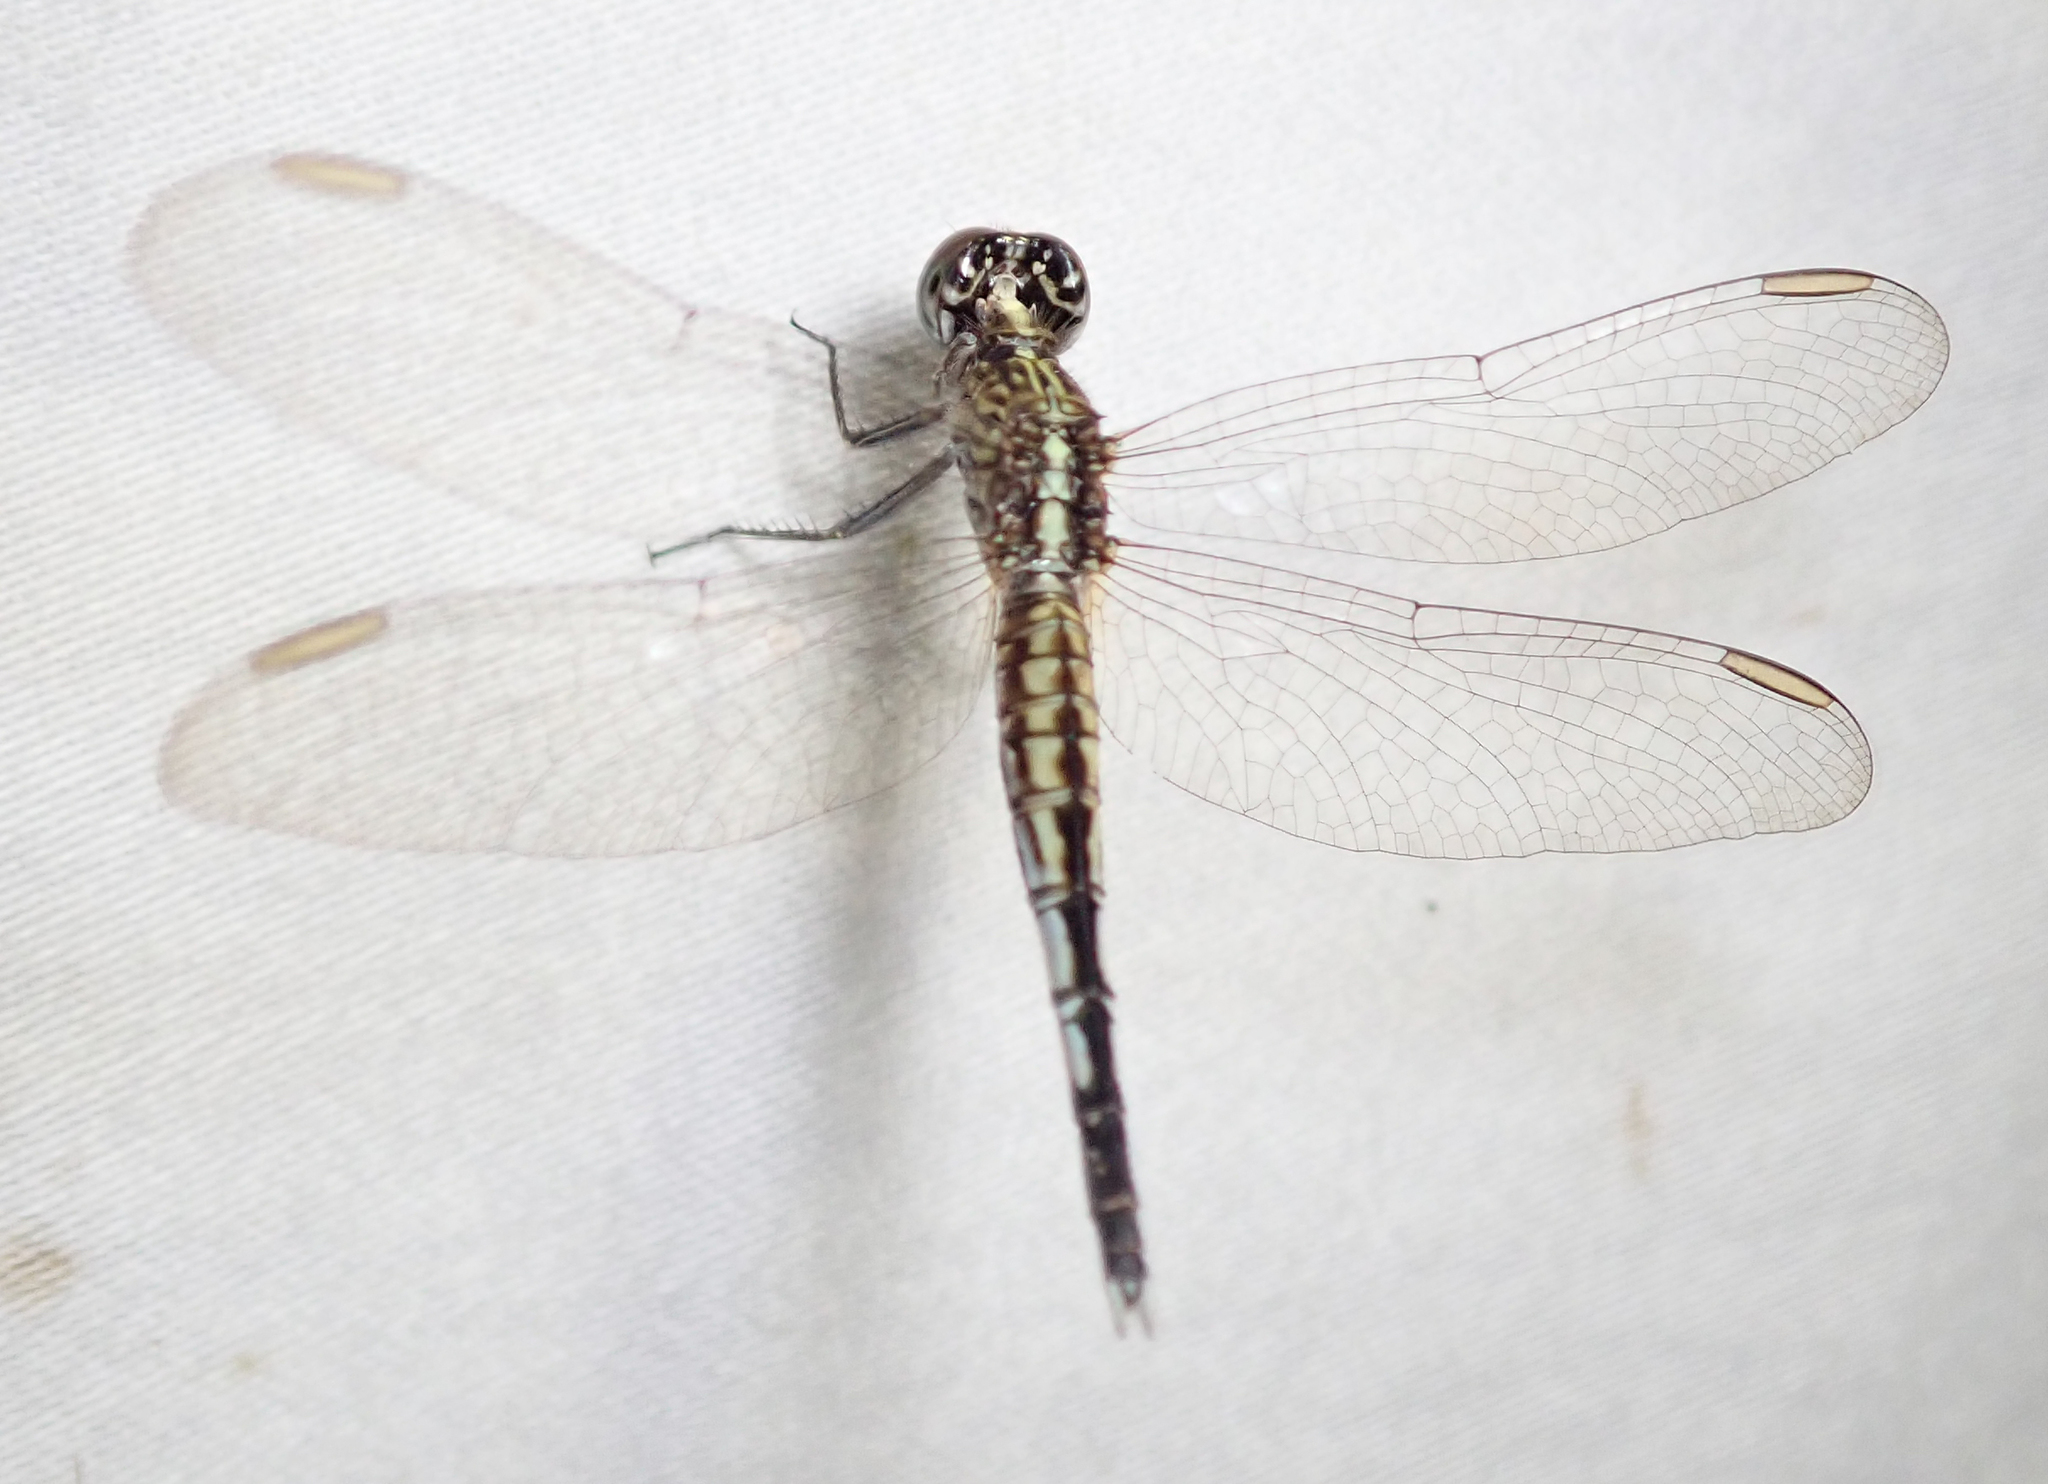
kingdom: Animalia
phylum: Arthropoda
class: Insecta
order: Odonata
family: Libellulidae
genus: Acisoma
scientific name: Acisoma inflatum
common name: Stout pintail
